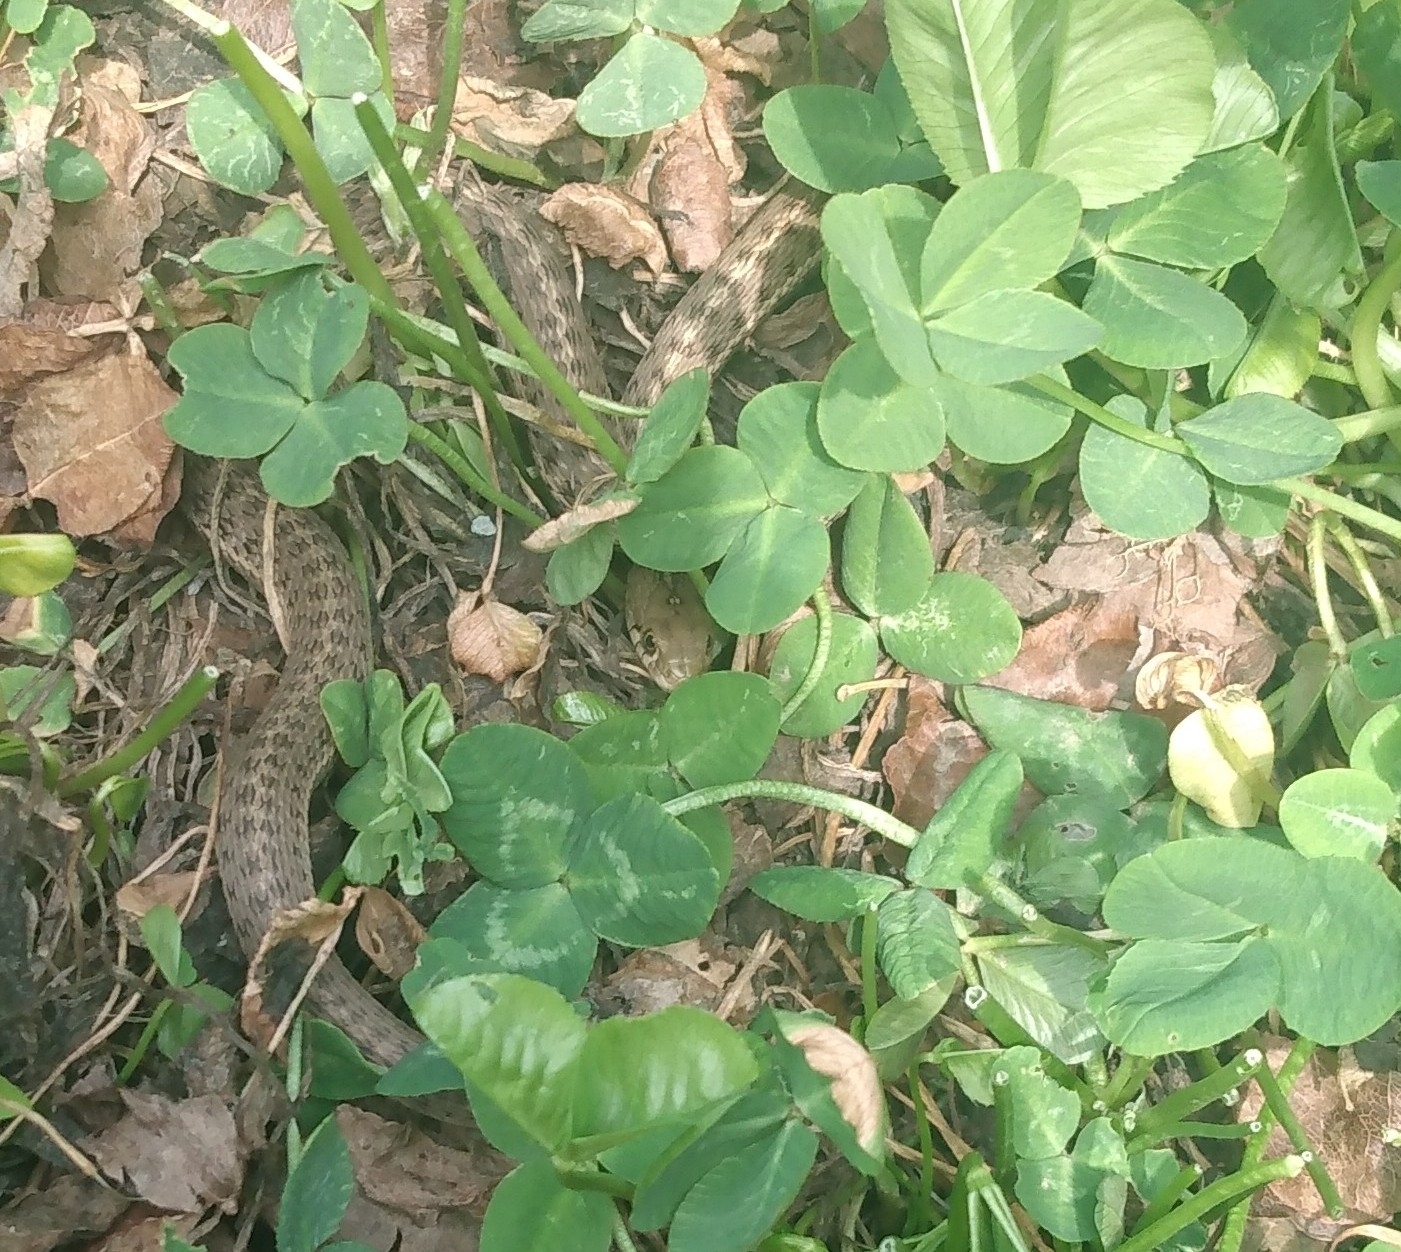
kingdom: Animalia
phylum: Chordata
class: Squamata
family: Colubridae
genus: Thamnophis
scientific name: Thamnophis elegans
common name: Western terrestrial garter snake
